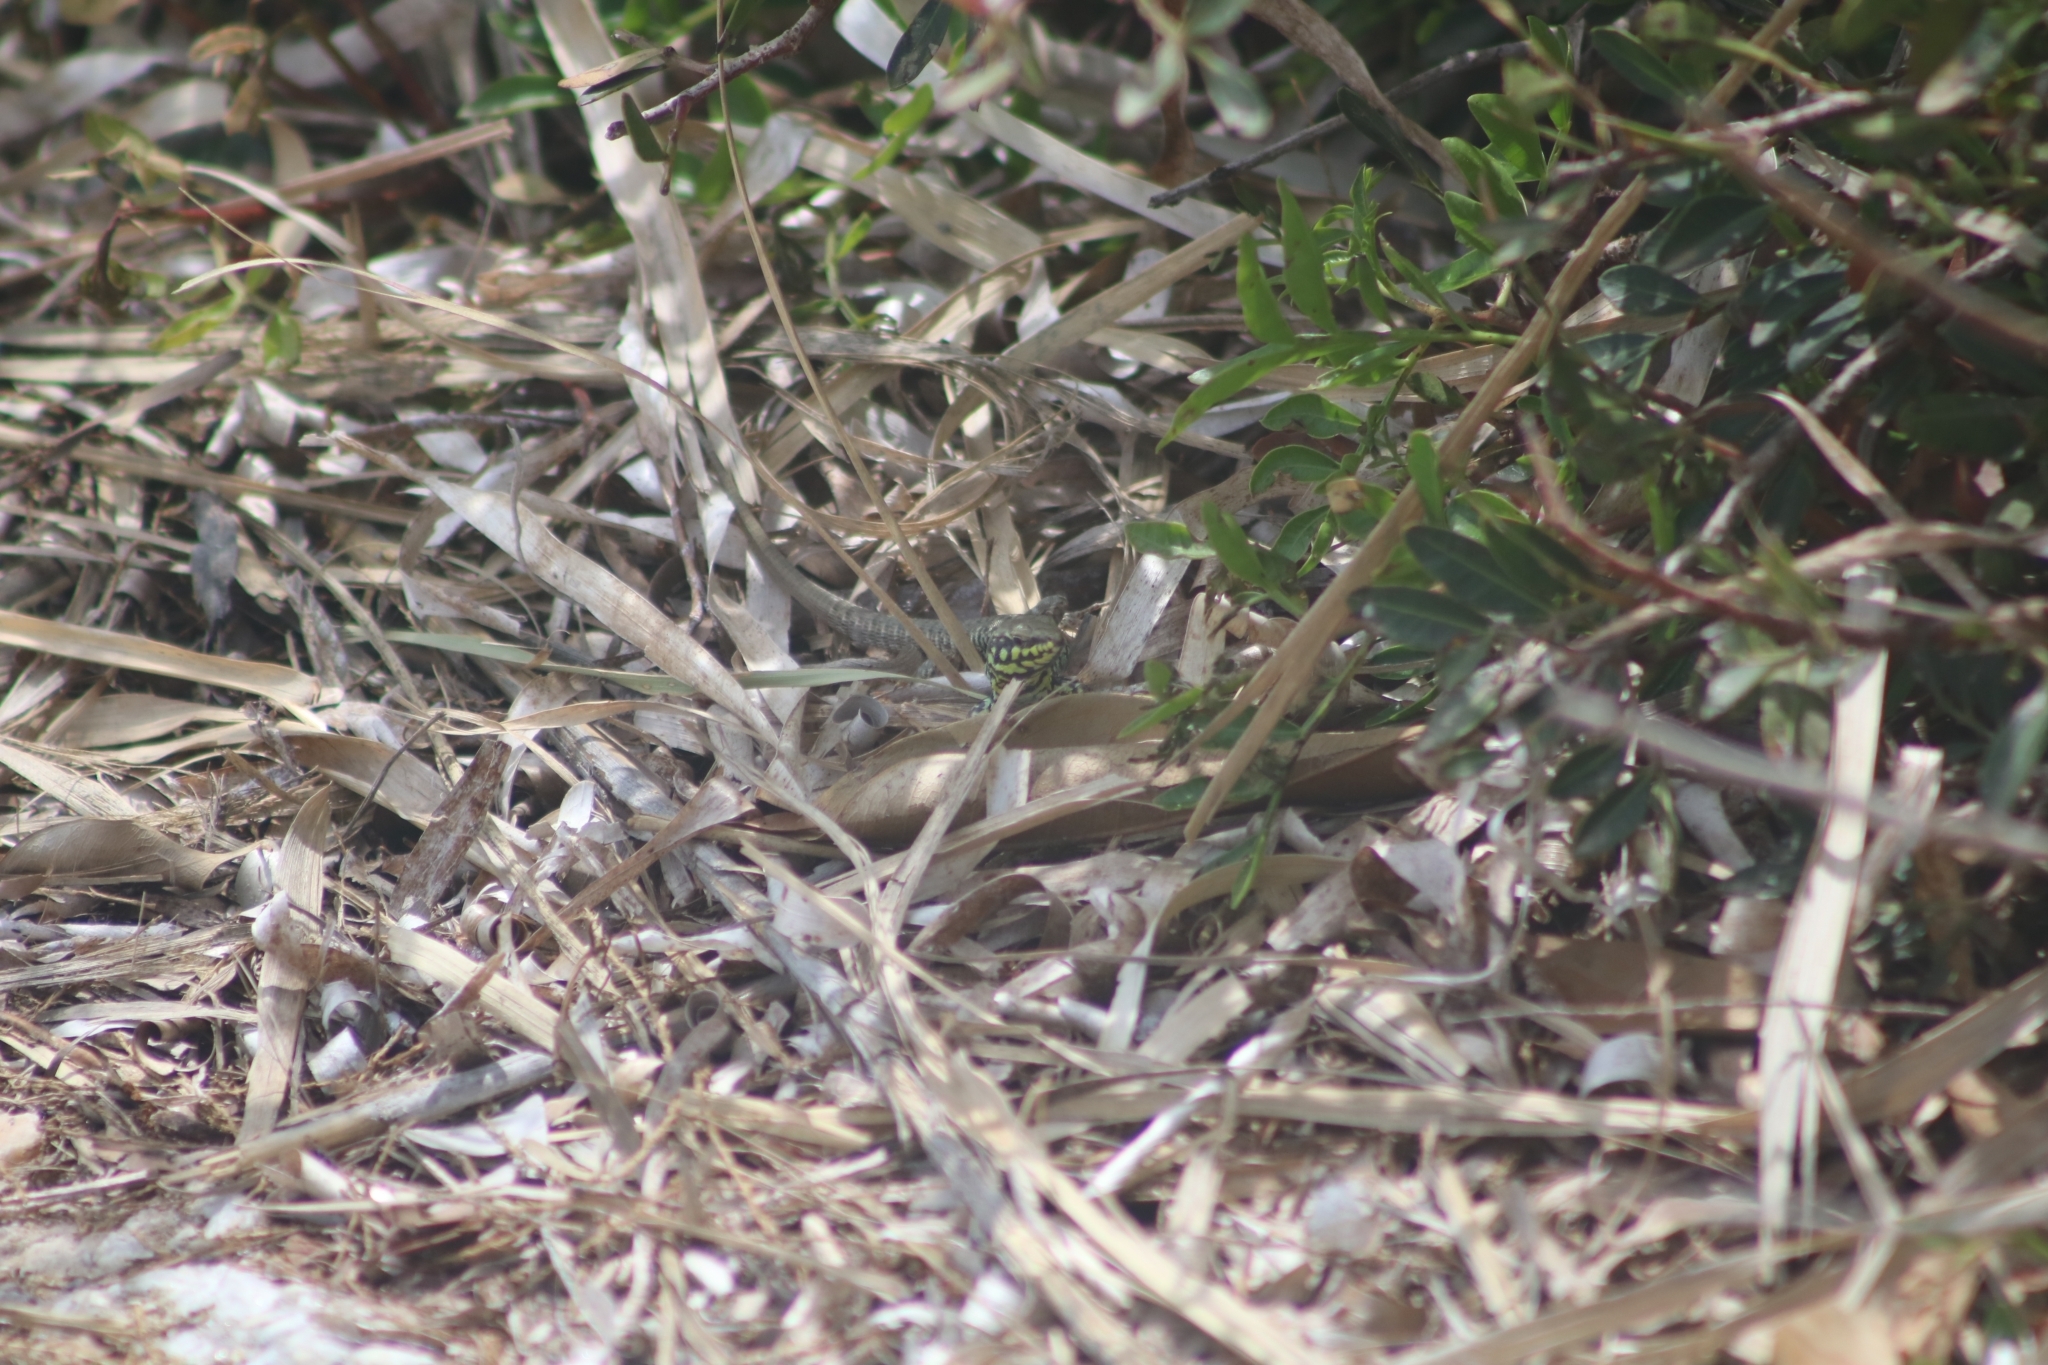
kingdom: Animalia
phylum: Chordata
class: Squamata
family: Lacertidae
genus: Podarcis
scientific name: Podarcis milensis
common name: Milos wall lizard
